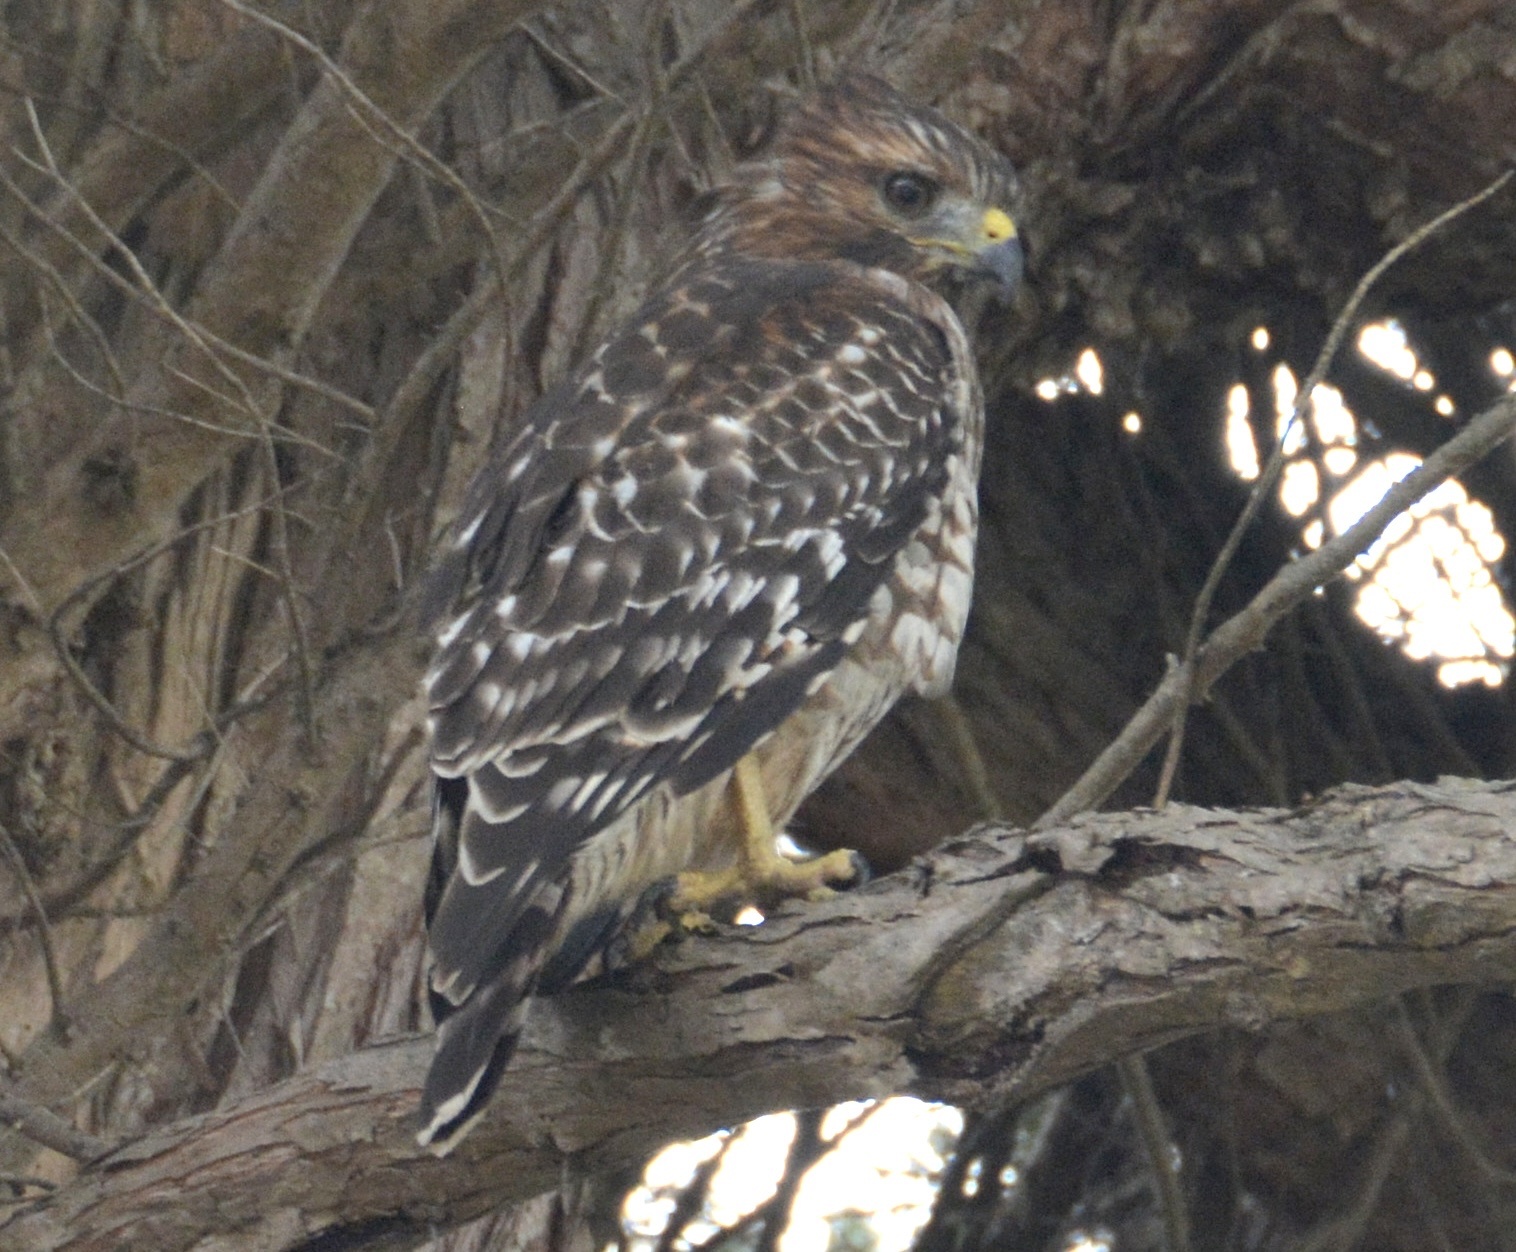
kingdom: Animalia
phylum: Chordata
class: Aves
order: Accipitriformes
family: Accipitridae
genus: Buteo
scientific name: Buteo lineatus
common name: Red-shouldered hawk
